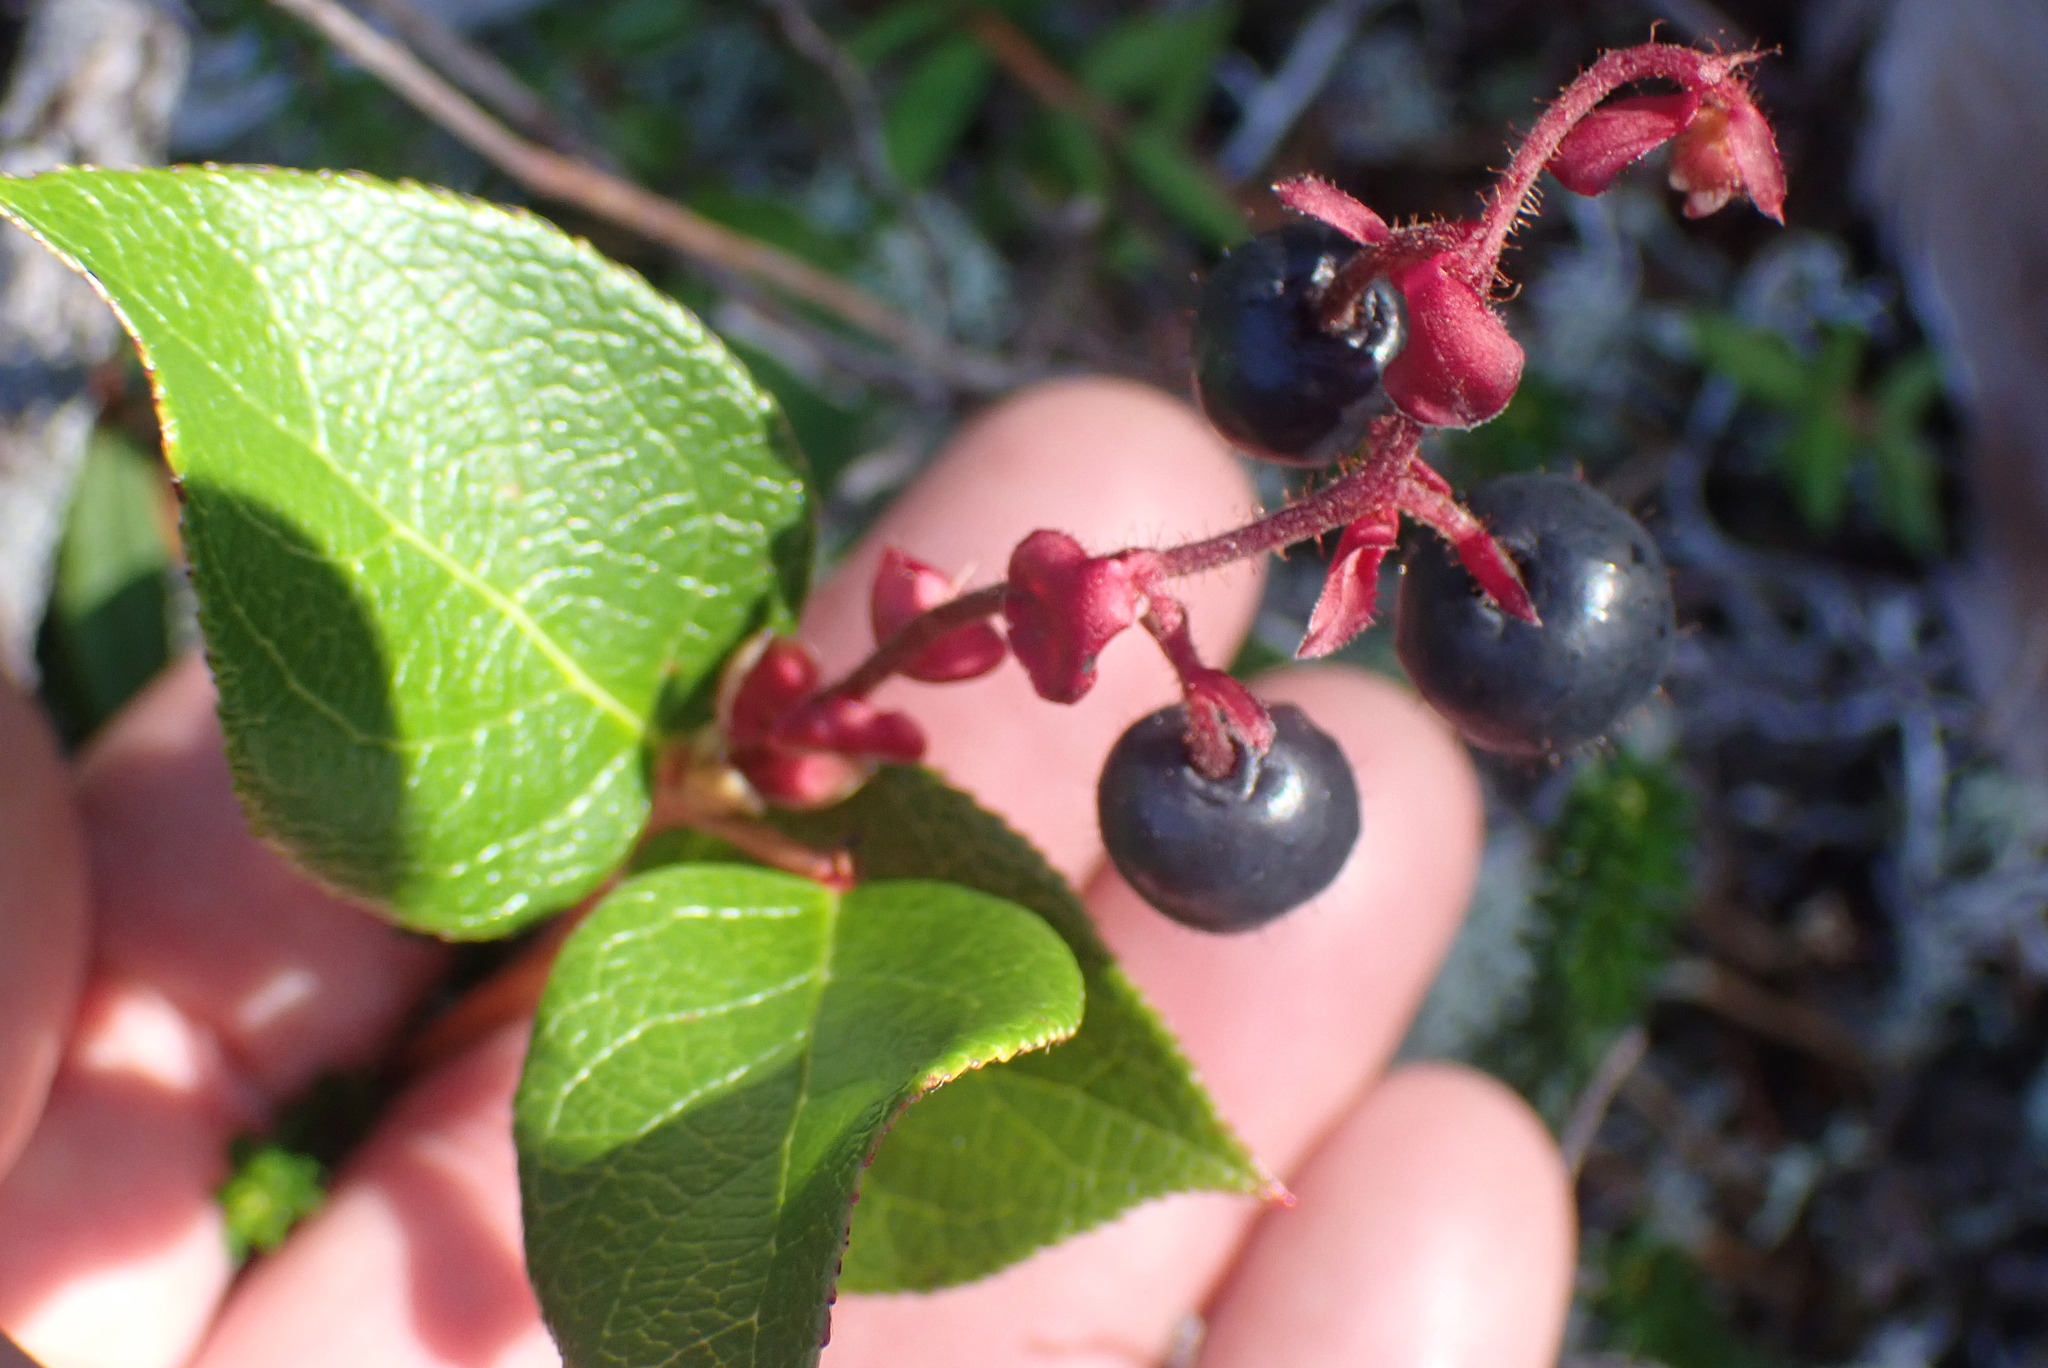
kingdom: Plantae
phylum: Tracheophyta
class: Magnoliopsida
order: Ericales
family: Ericaceae
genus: Gaultheria
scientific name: Gaultheria shallon
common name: Shallon
